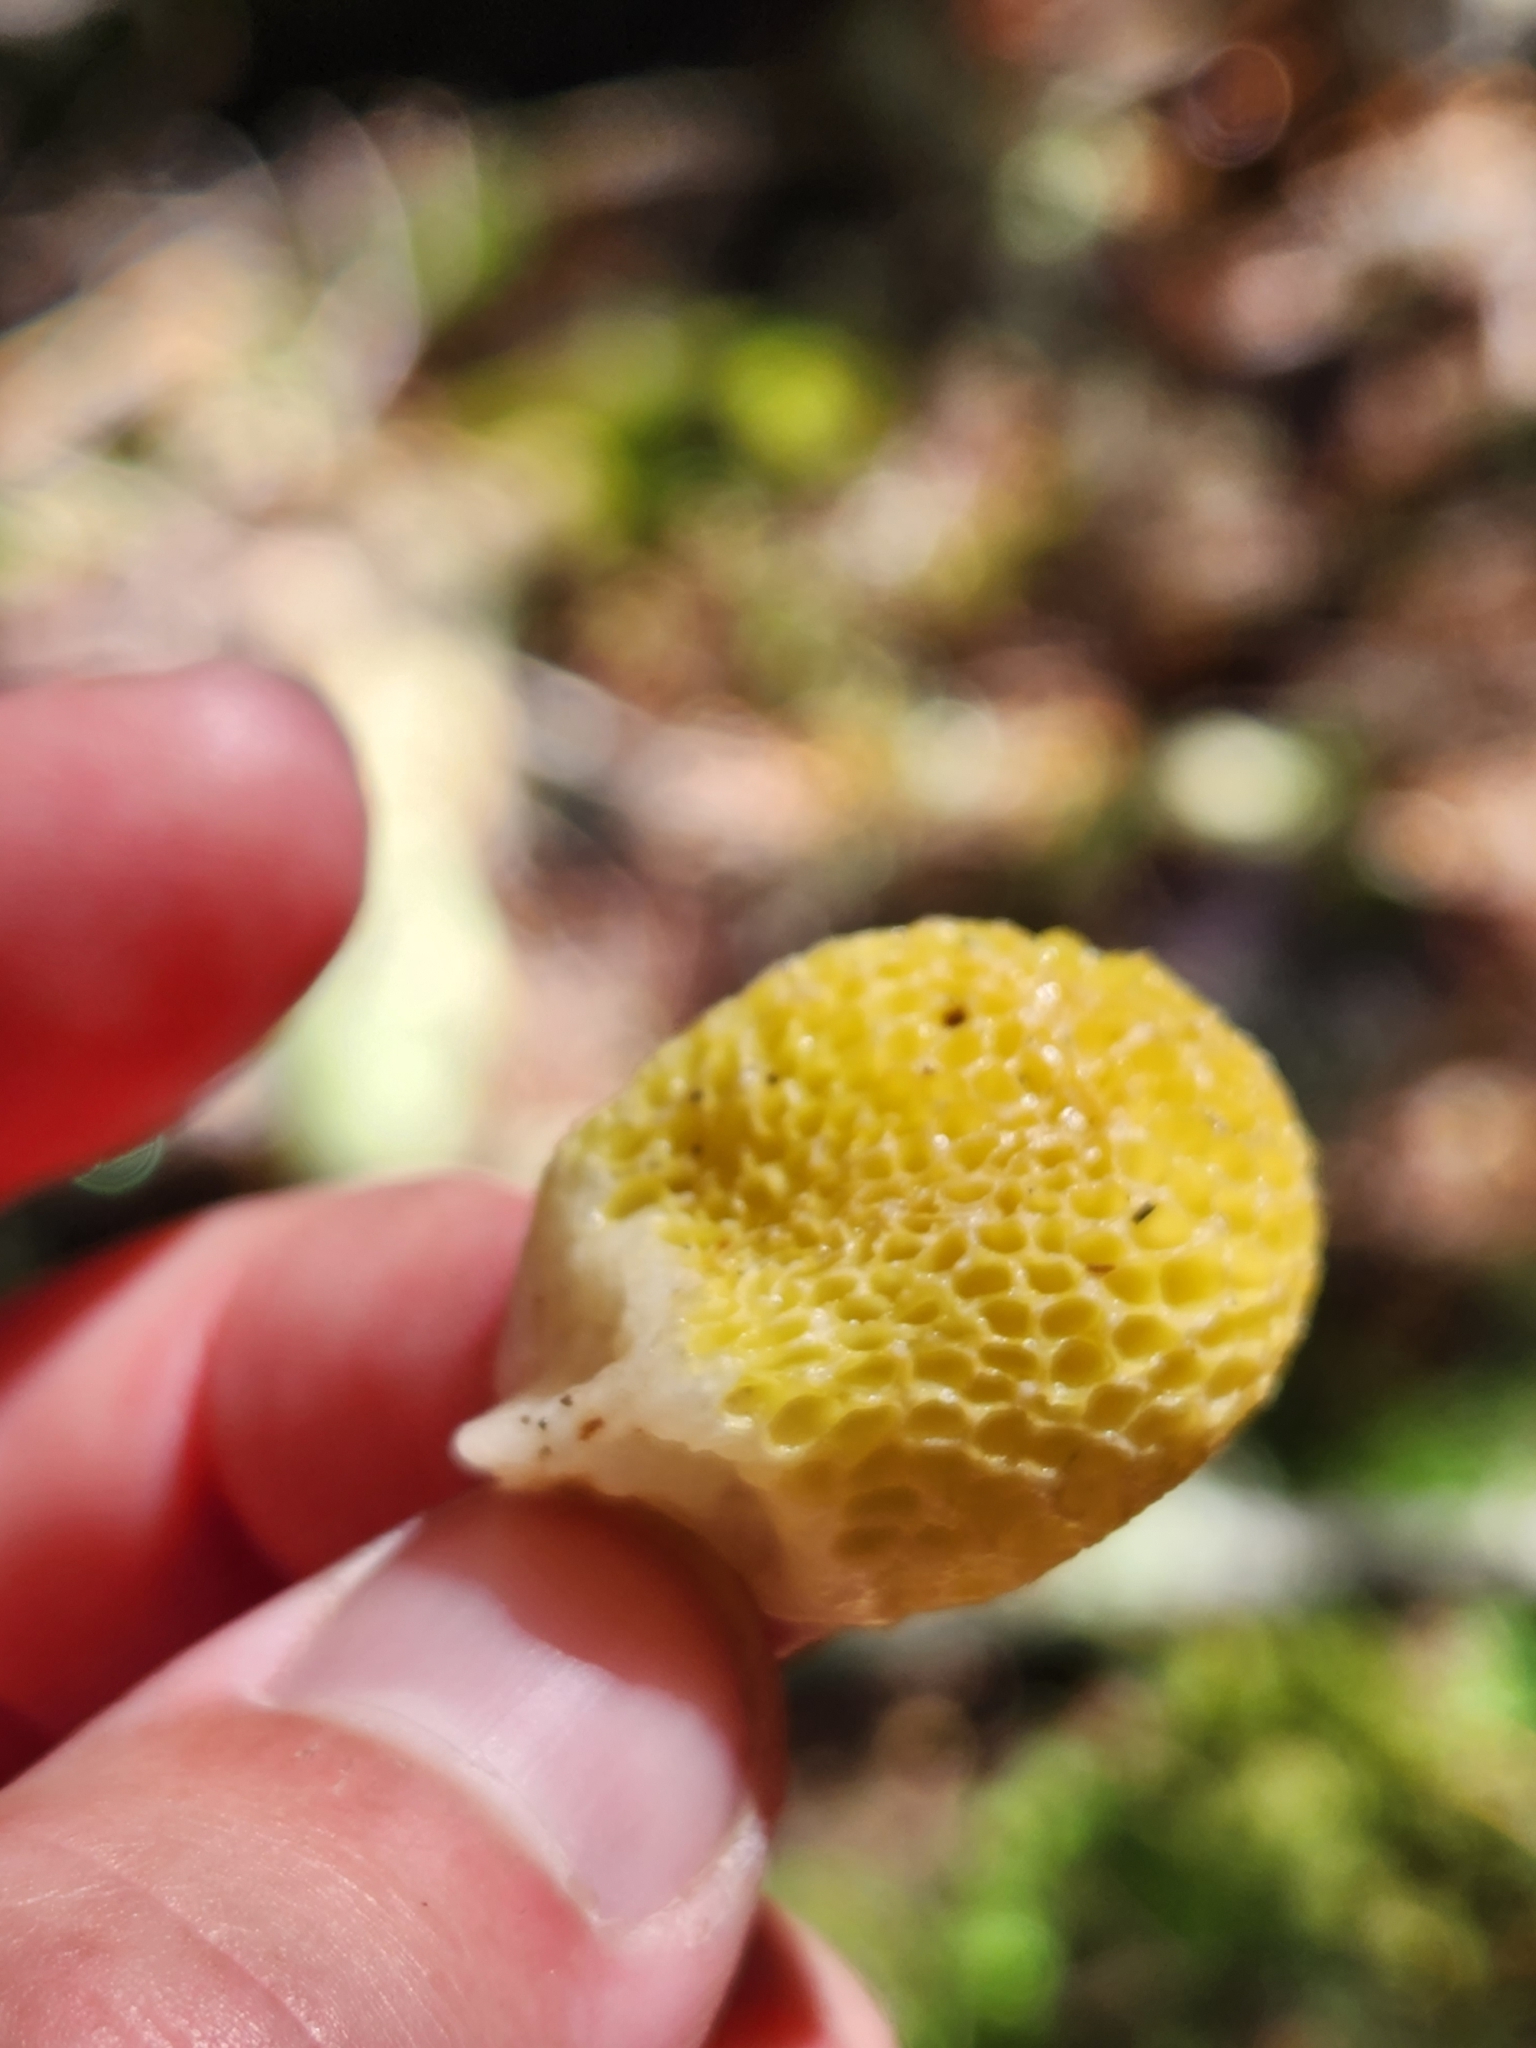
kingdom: Fungi
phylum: Ascomycota
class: Leotiomycetes
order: Cyttariales
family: Cyttariaceae
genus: Cyttaria
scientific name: Cyttaria gunnii
